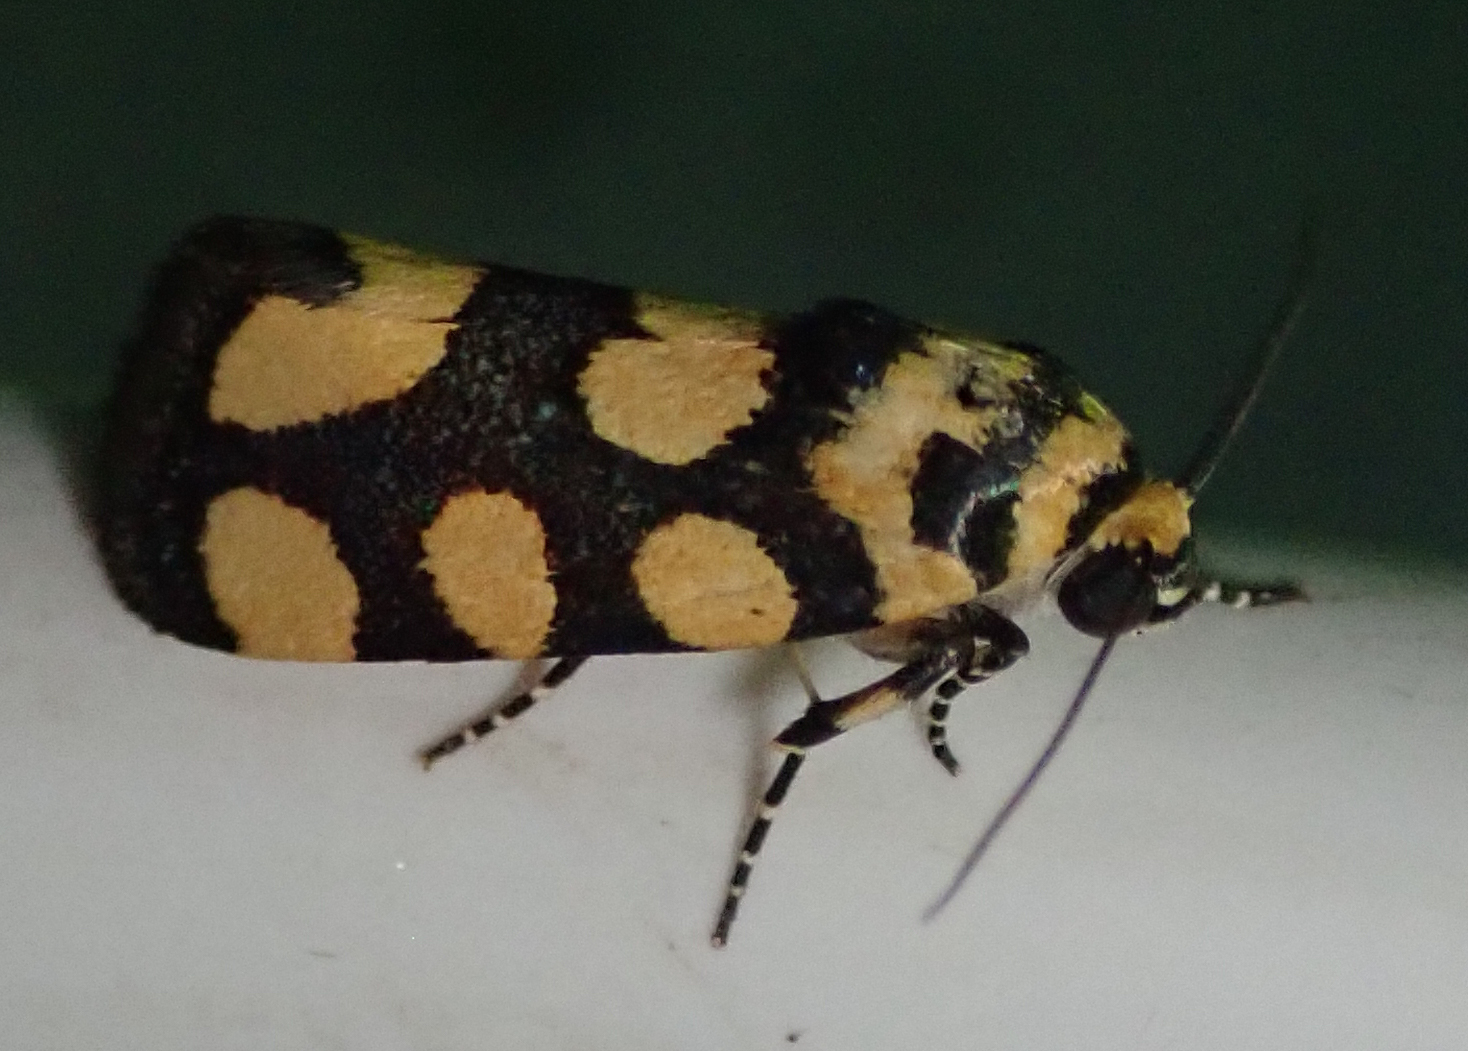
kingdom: Animalia
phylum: Arthropoda
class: Insecta
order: Lepidoptera
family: Noctuidae
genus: Acontia
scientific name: Acontia guttifera
